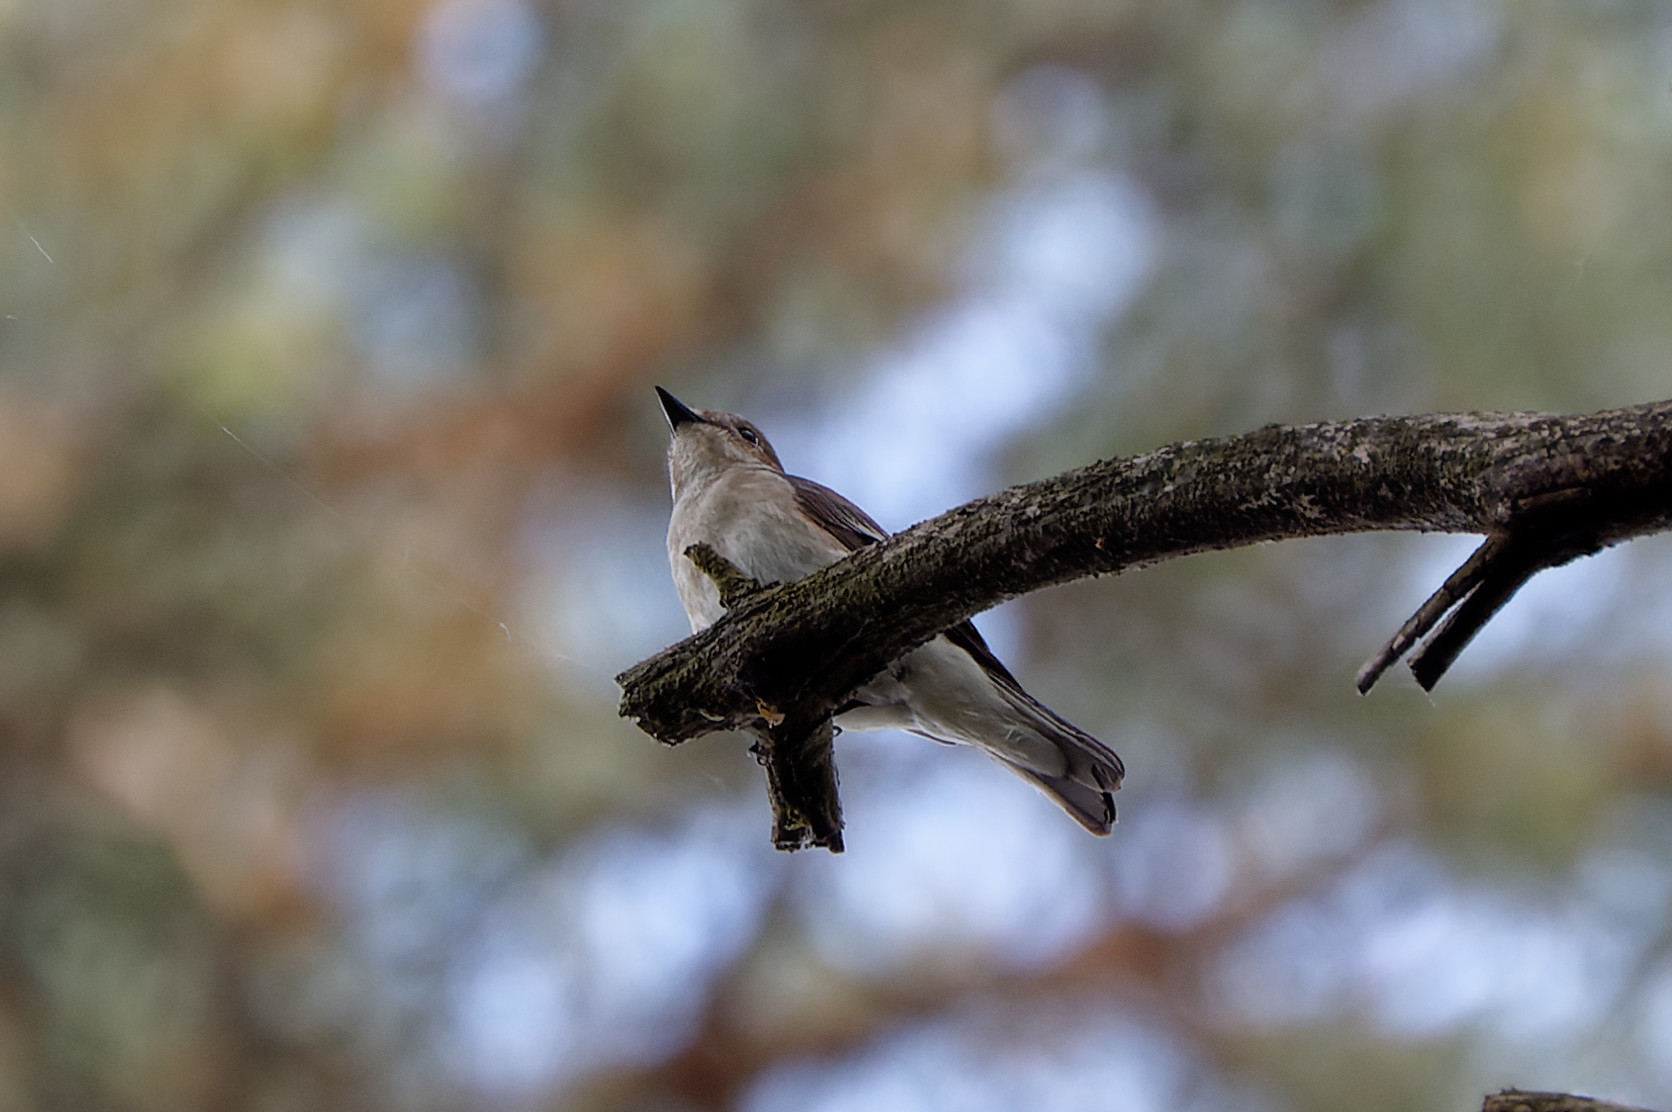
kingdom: Animalia
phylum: Chordata
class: Aves
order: Passeriformes
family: Muscicapidae
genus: Ficedula
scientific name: Ficedula hypoleuca
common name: European pied flycatcher
